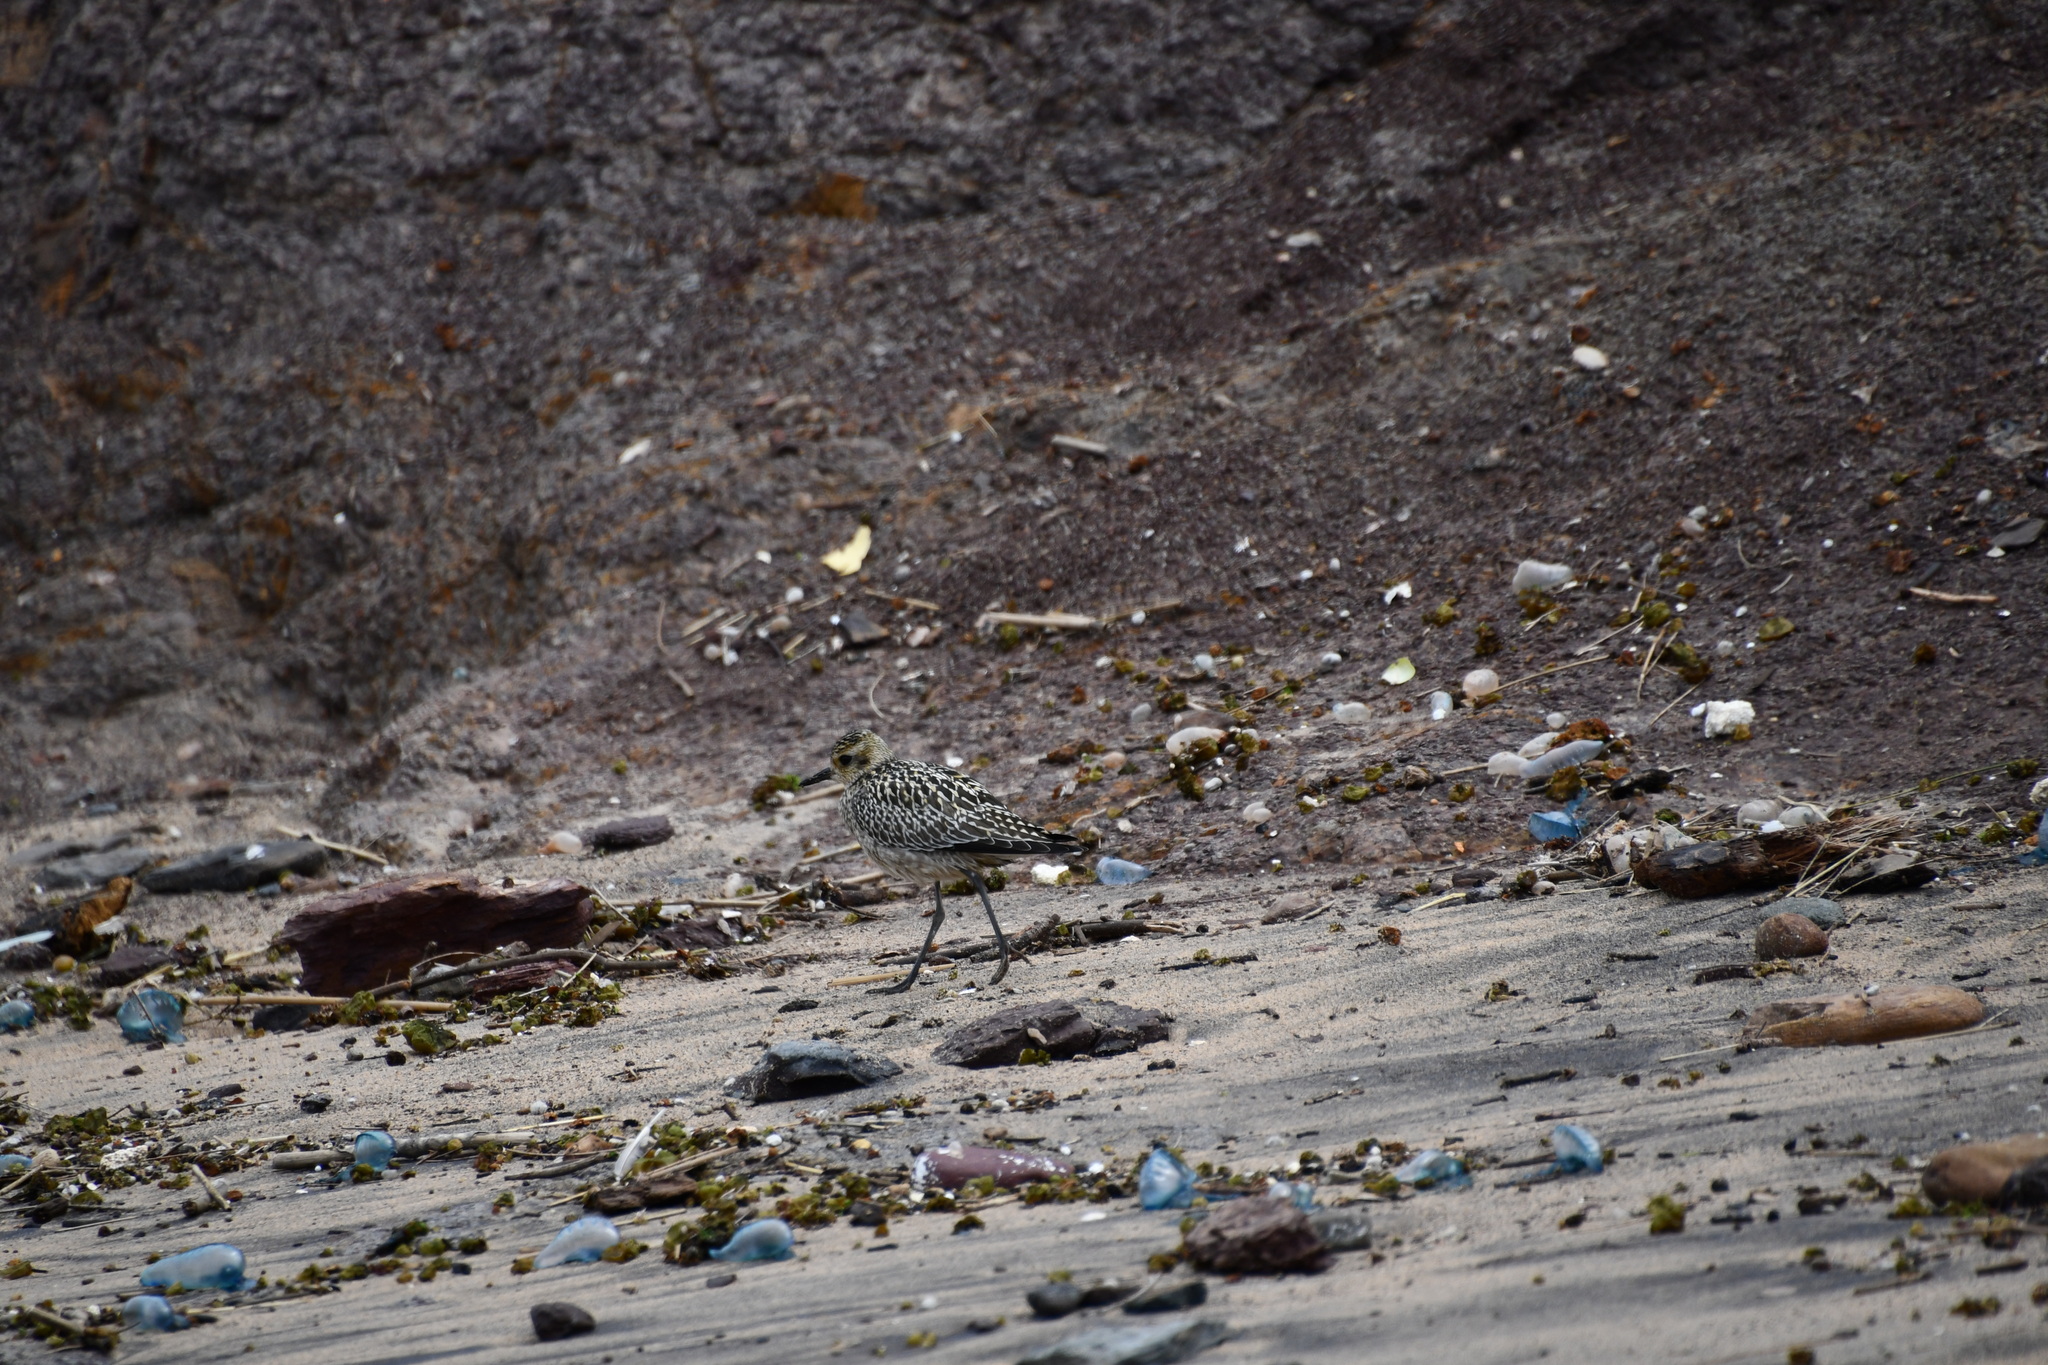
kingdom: Animalia
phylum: Chordata
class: Aves
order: Charadriiformes
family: Charadriidae
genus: Pluvialis
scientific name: Pluvialis fulva
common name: Pacific golden plover
